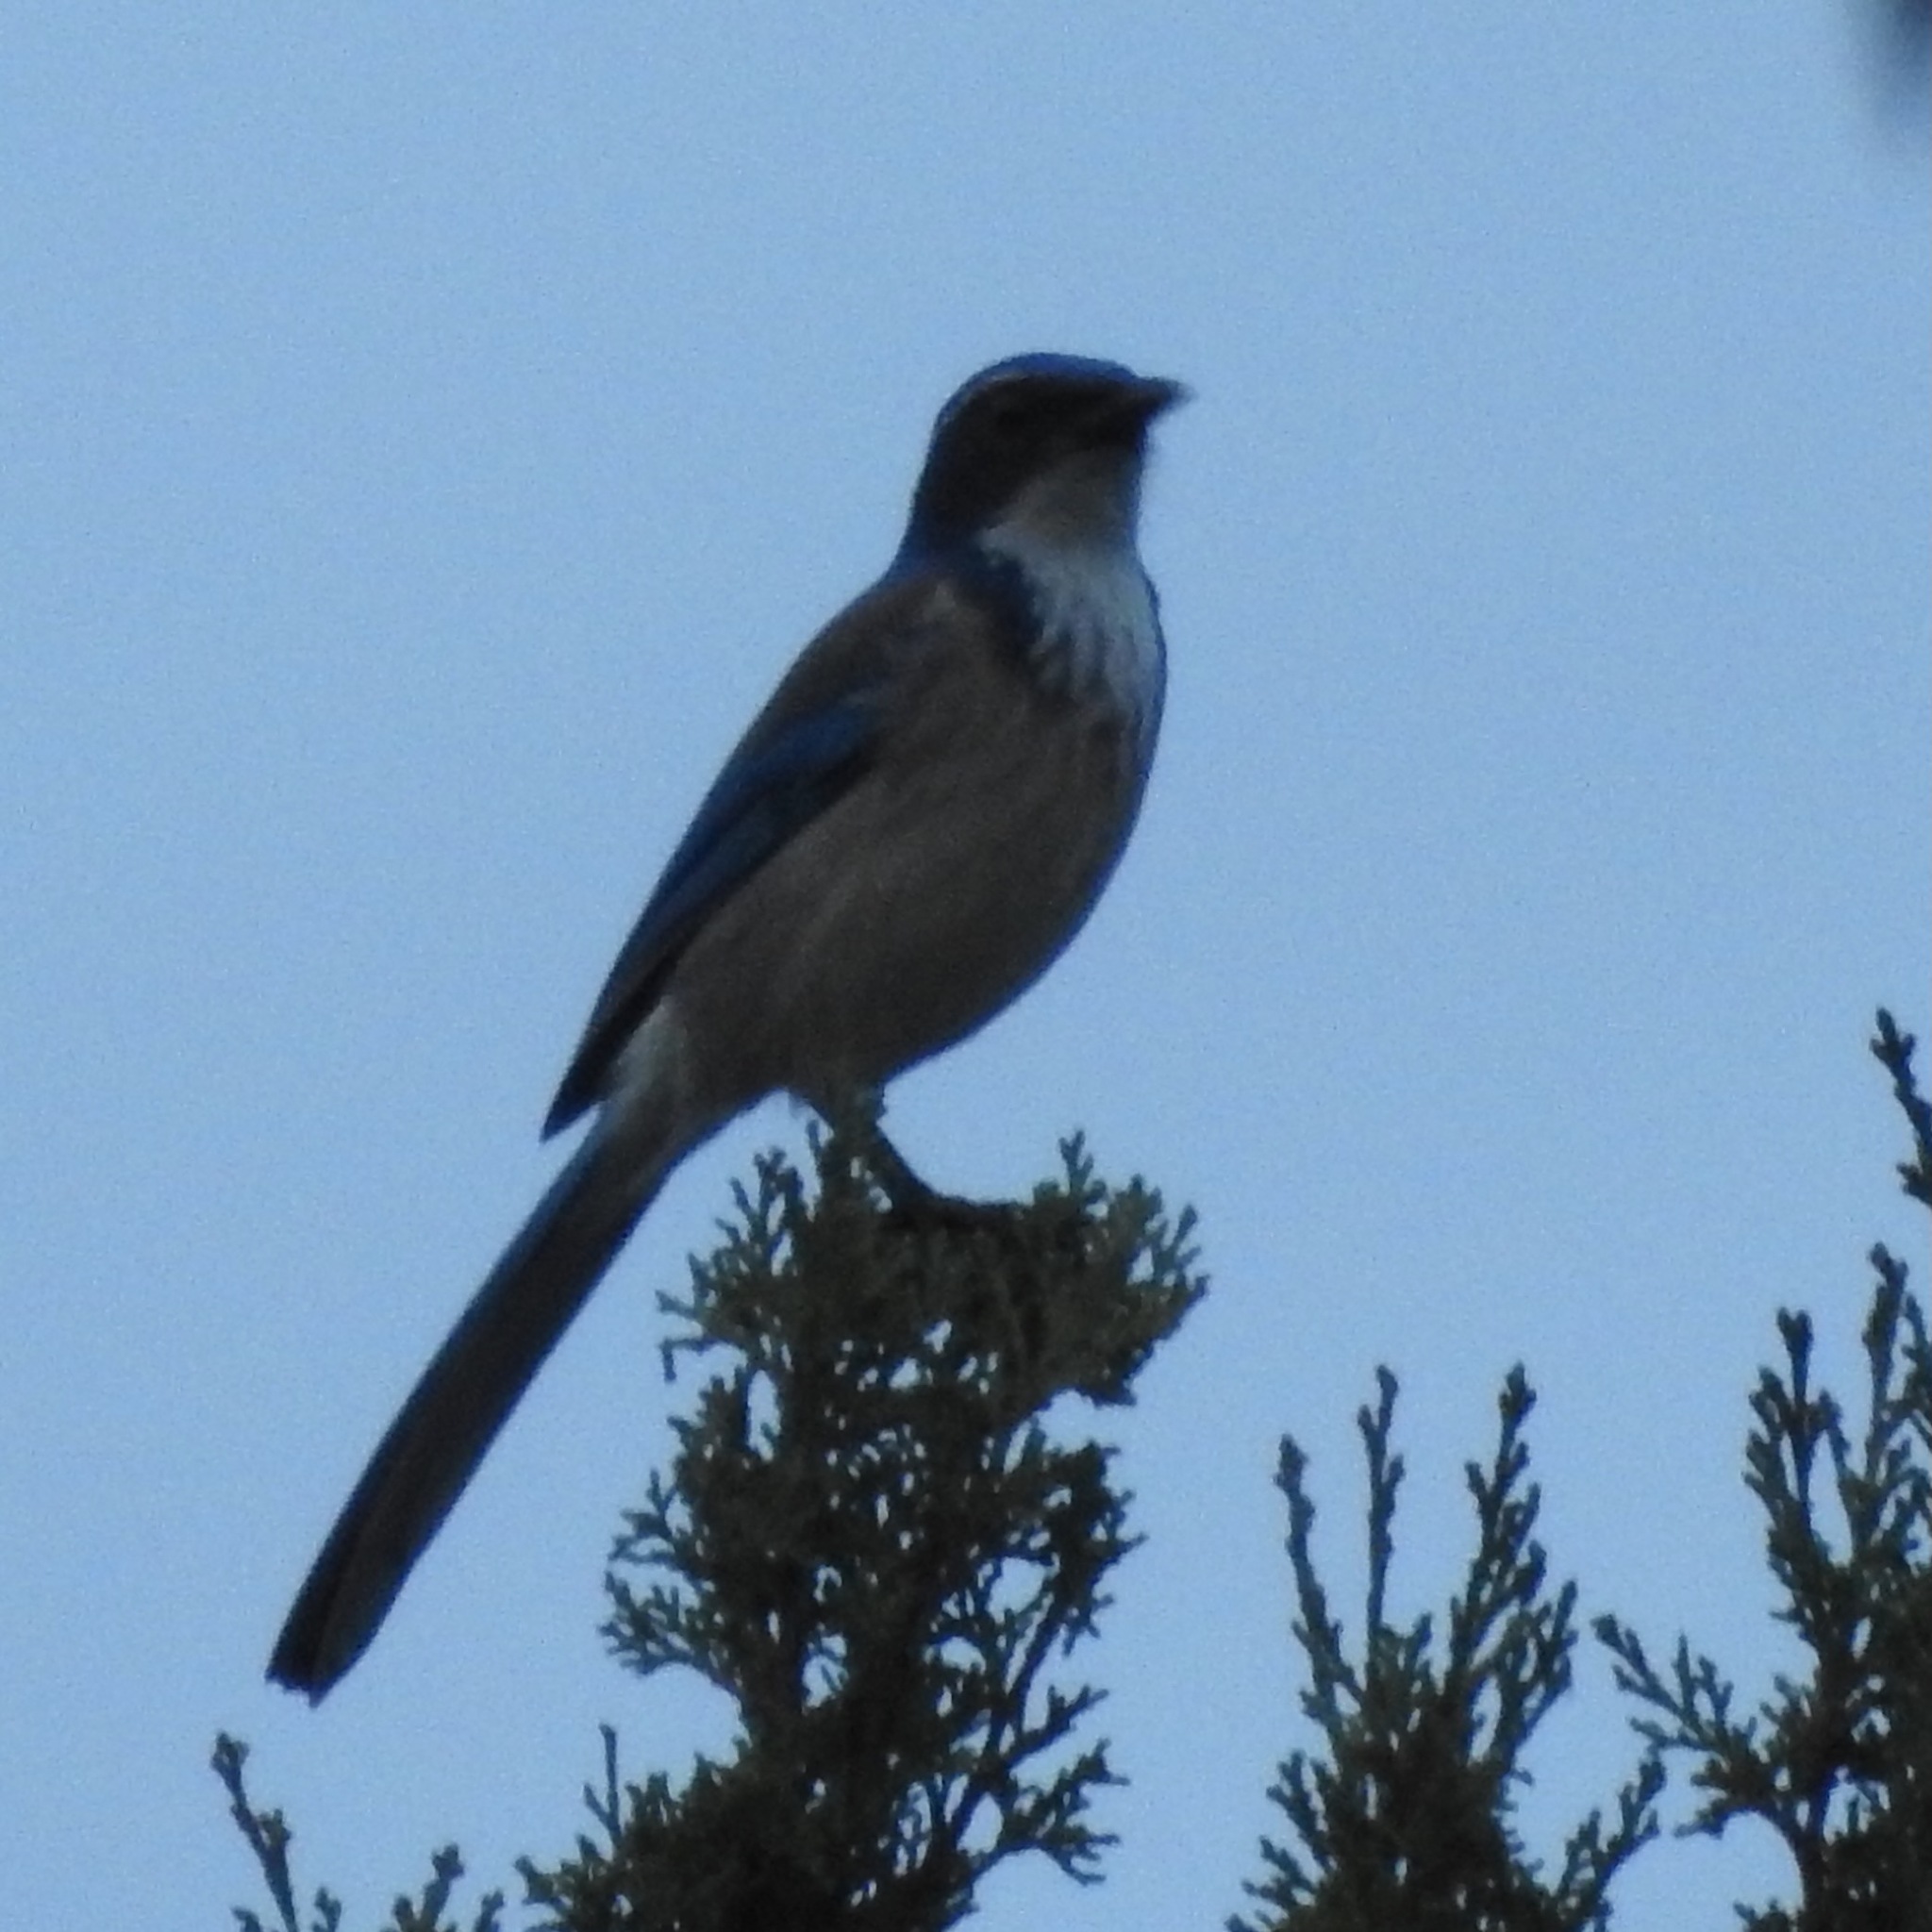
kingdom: Animalia
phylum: Chordata
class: Aves
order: Passeriformes
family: Corvidae
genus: Aphelocoma
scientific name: Aphelocoma californica
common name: California scrub-jay
